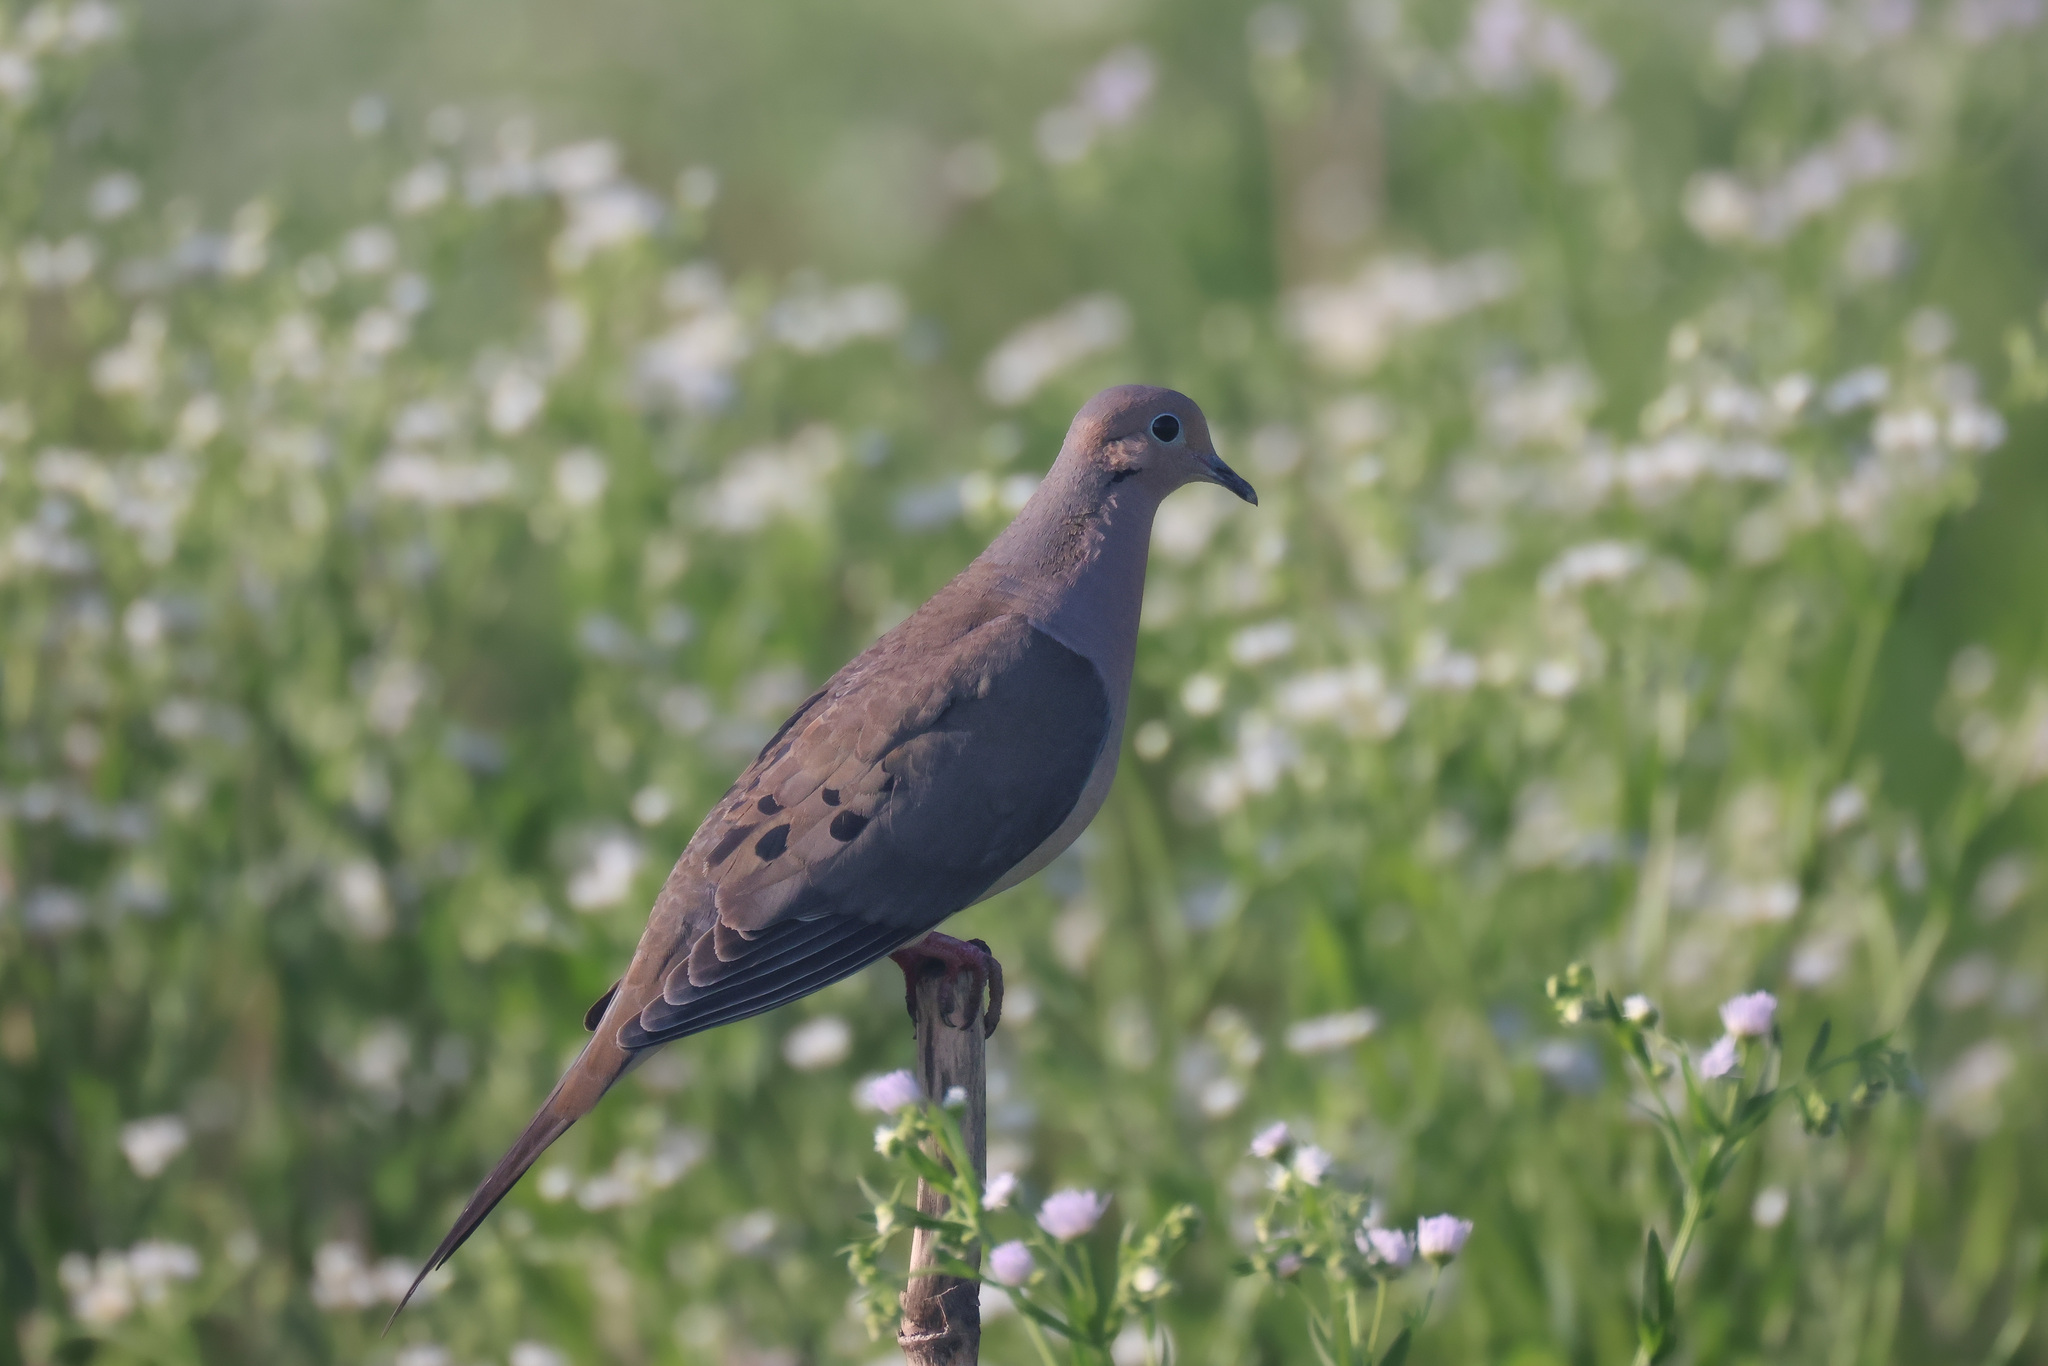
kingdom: Animalia
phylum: Chordata
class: Aves
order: Columbiformes
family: Columbidae
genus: Zenaida
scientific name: Zenaida macroura
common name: Mourning dove
